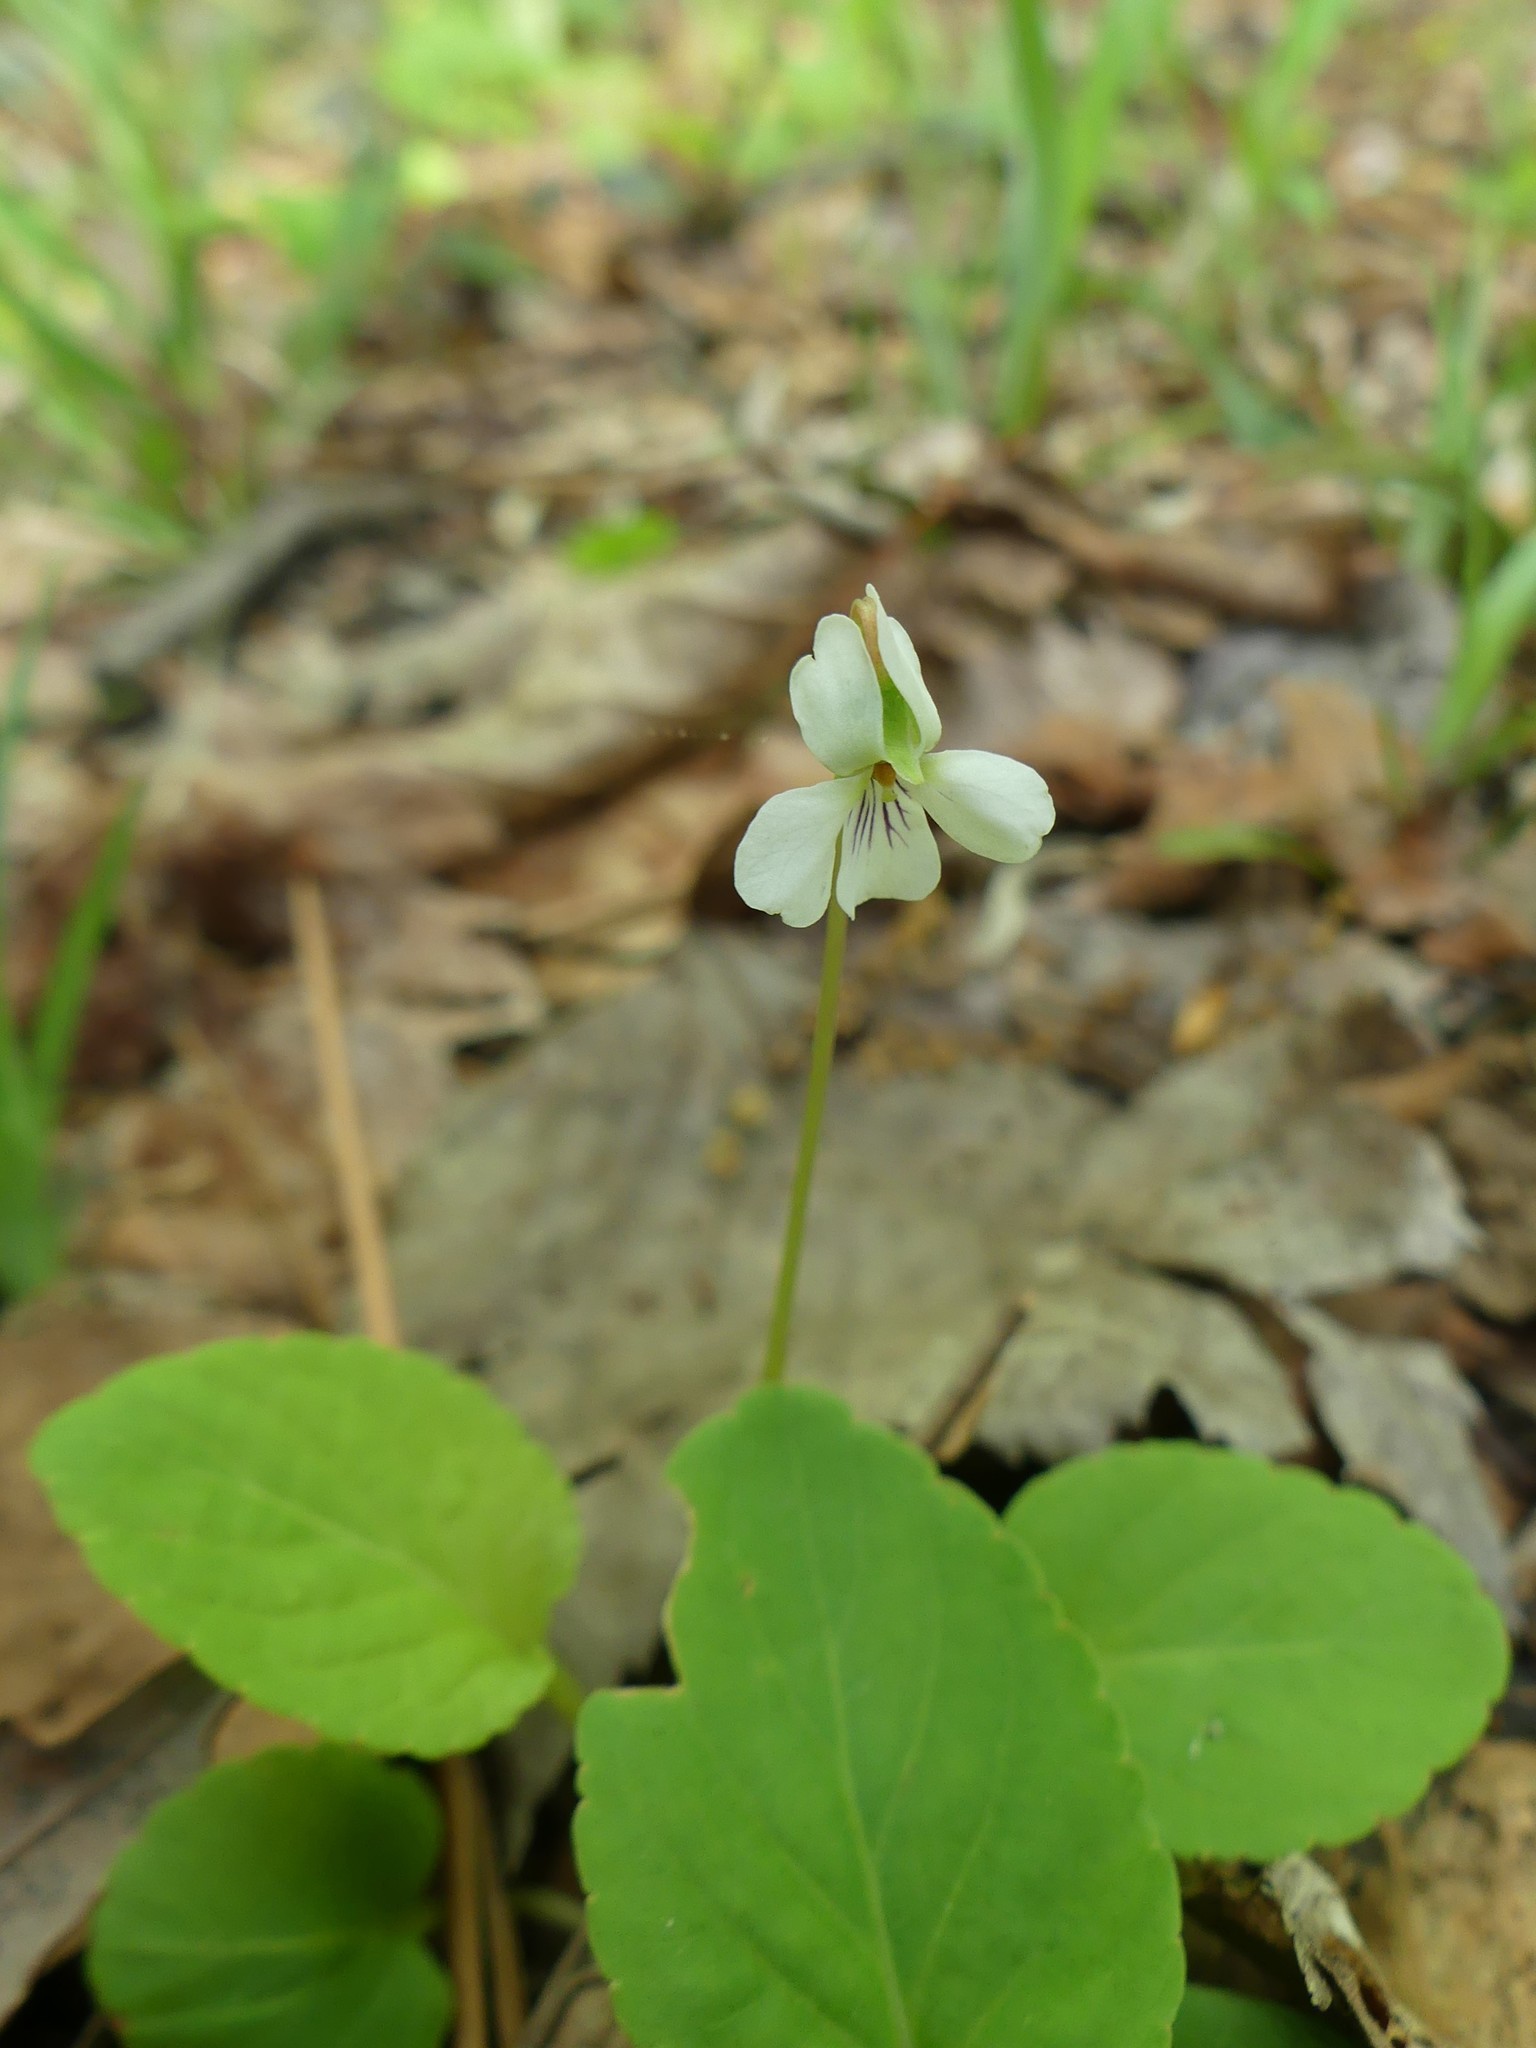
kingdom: Plantae
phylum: Tracheophyta
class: Magnoliopsida
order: Malpighiales
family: Violaceae
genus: Viola
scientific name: Viola primulifolia
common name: Primrose-leaf violet
